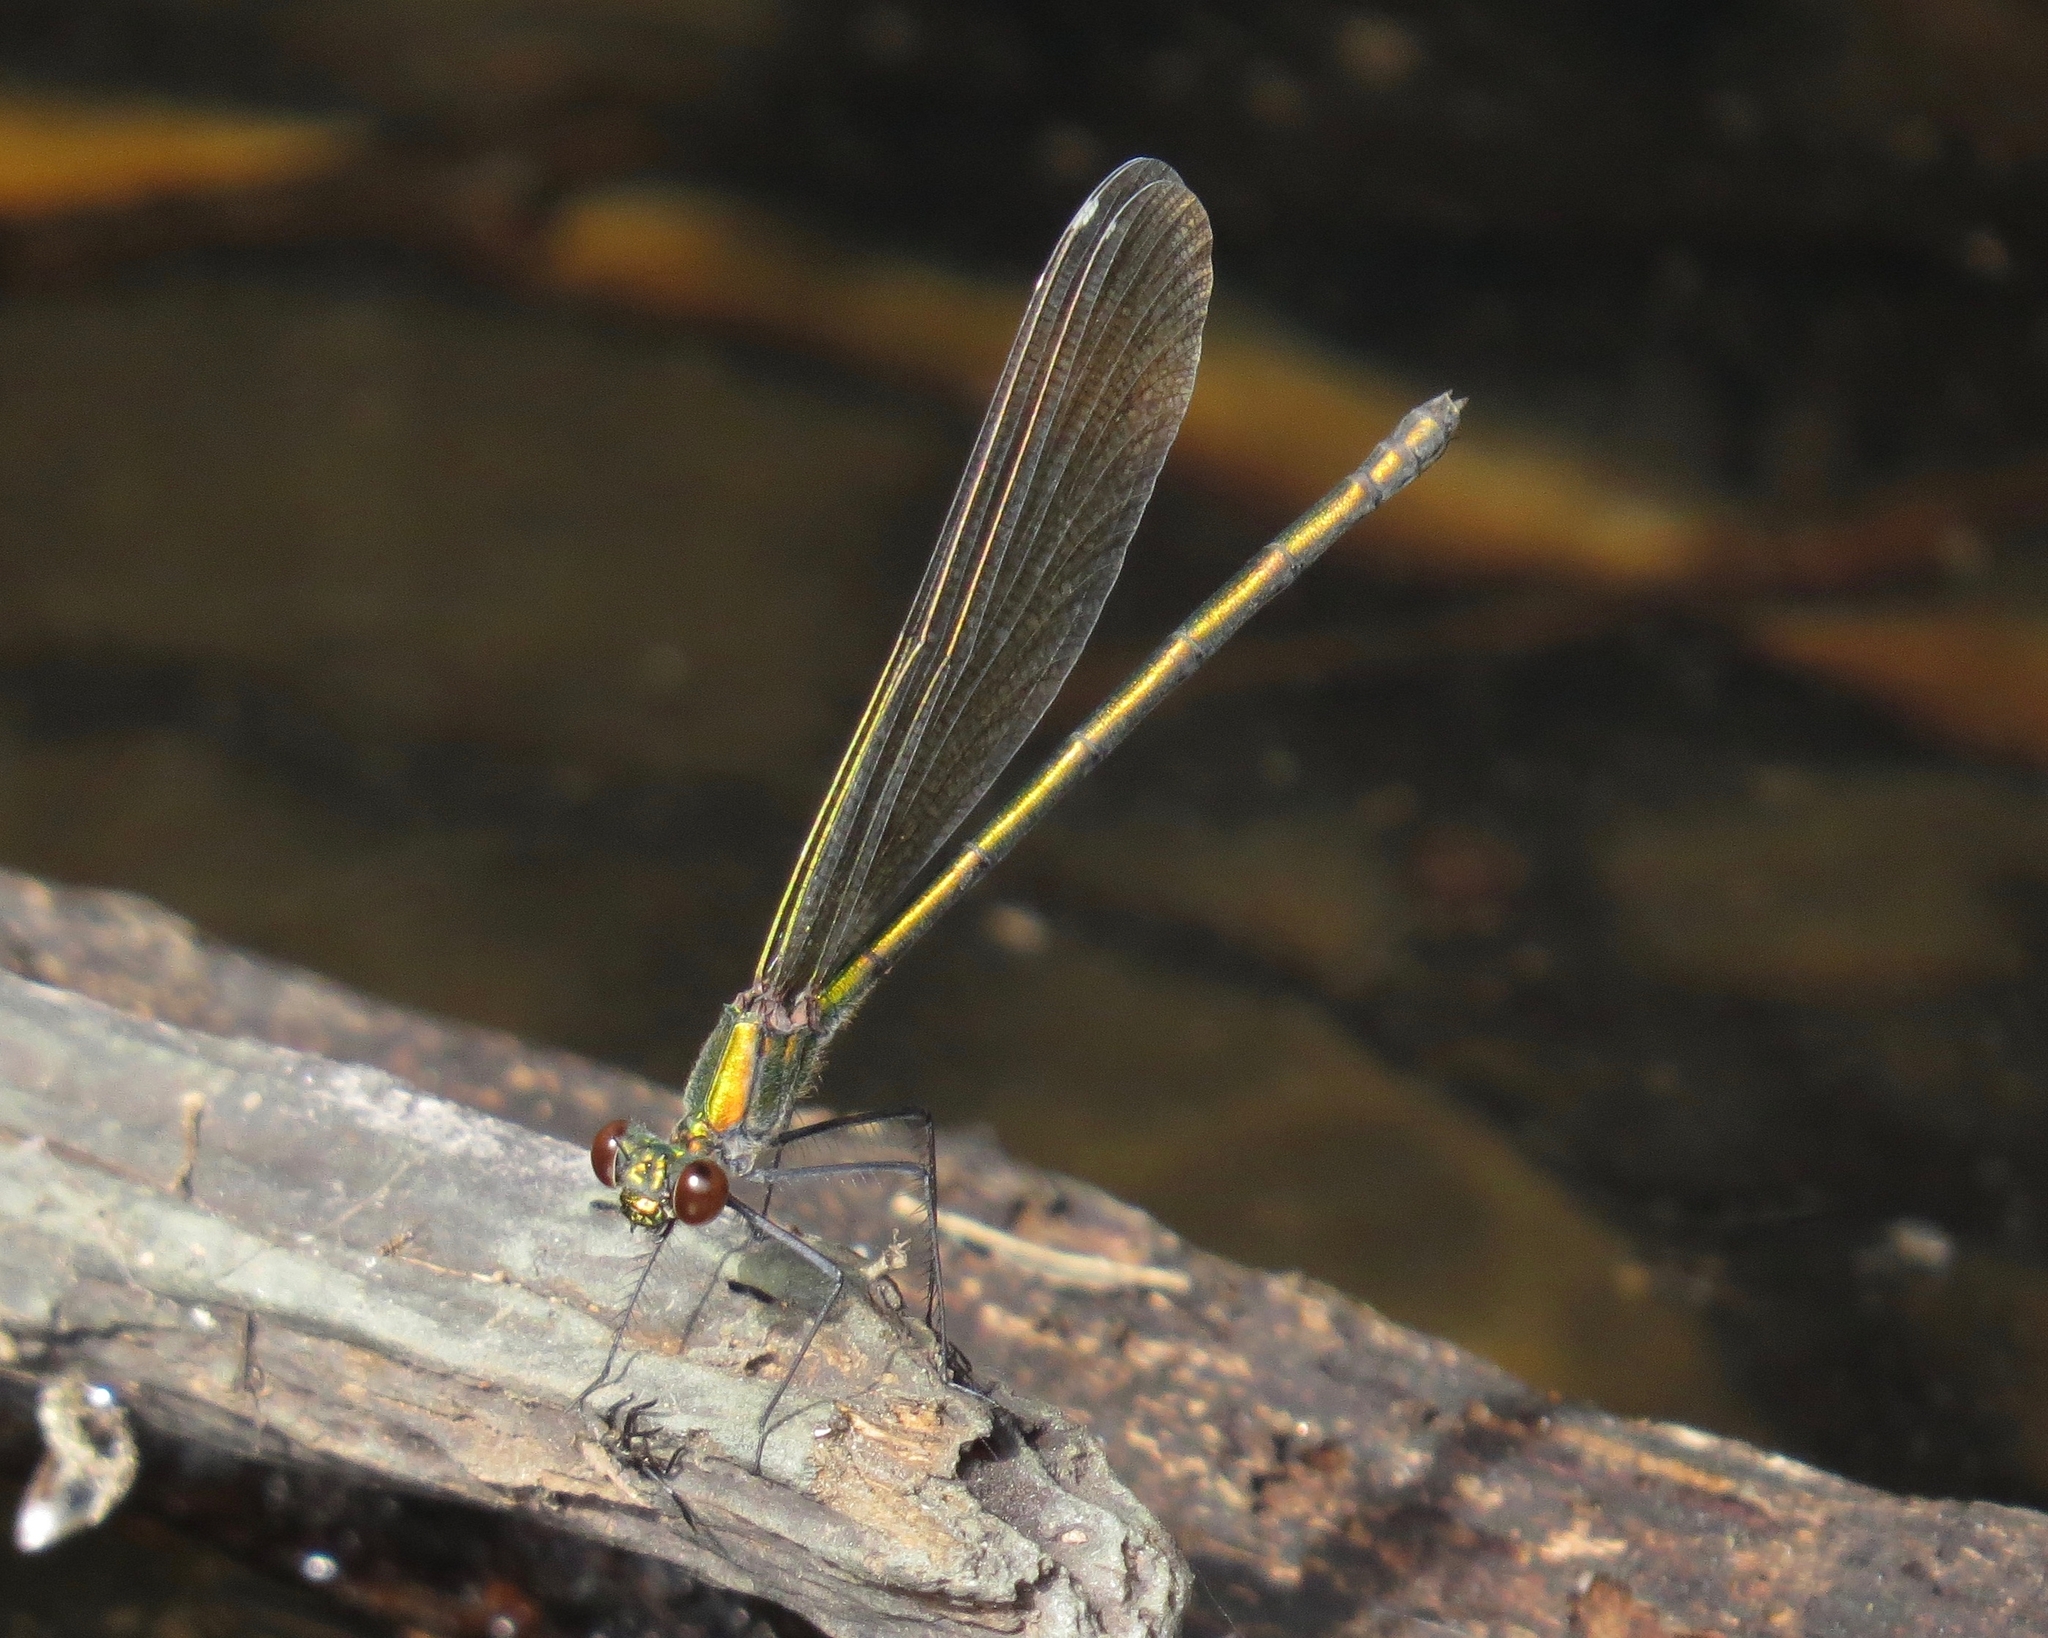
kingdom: Animalia
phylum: Arthropoda
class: Insecta
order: Odonata
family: Calopterygidae
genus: Calopteryx
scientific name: Calopteryx dimidiata
